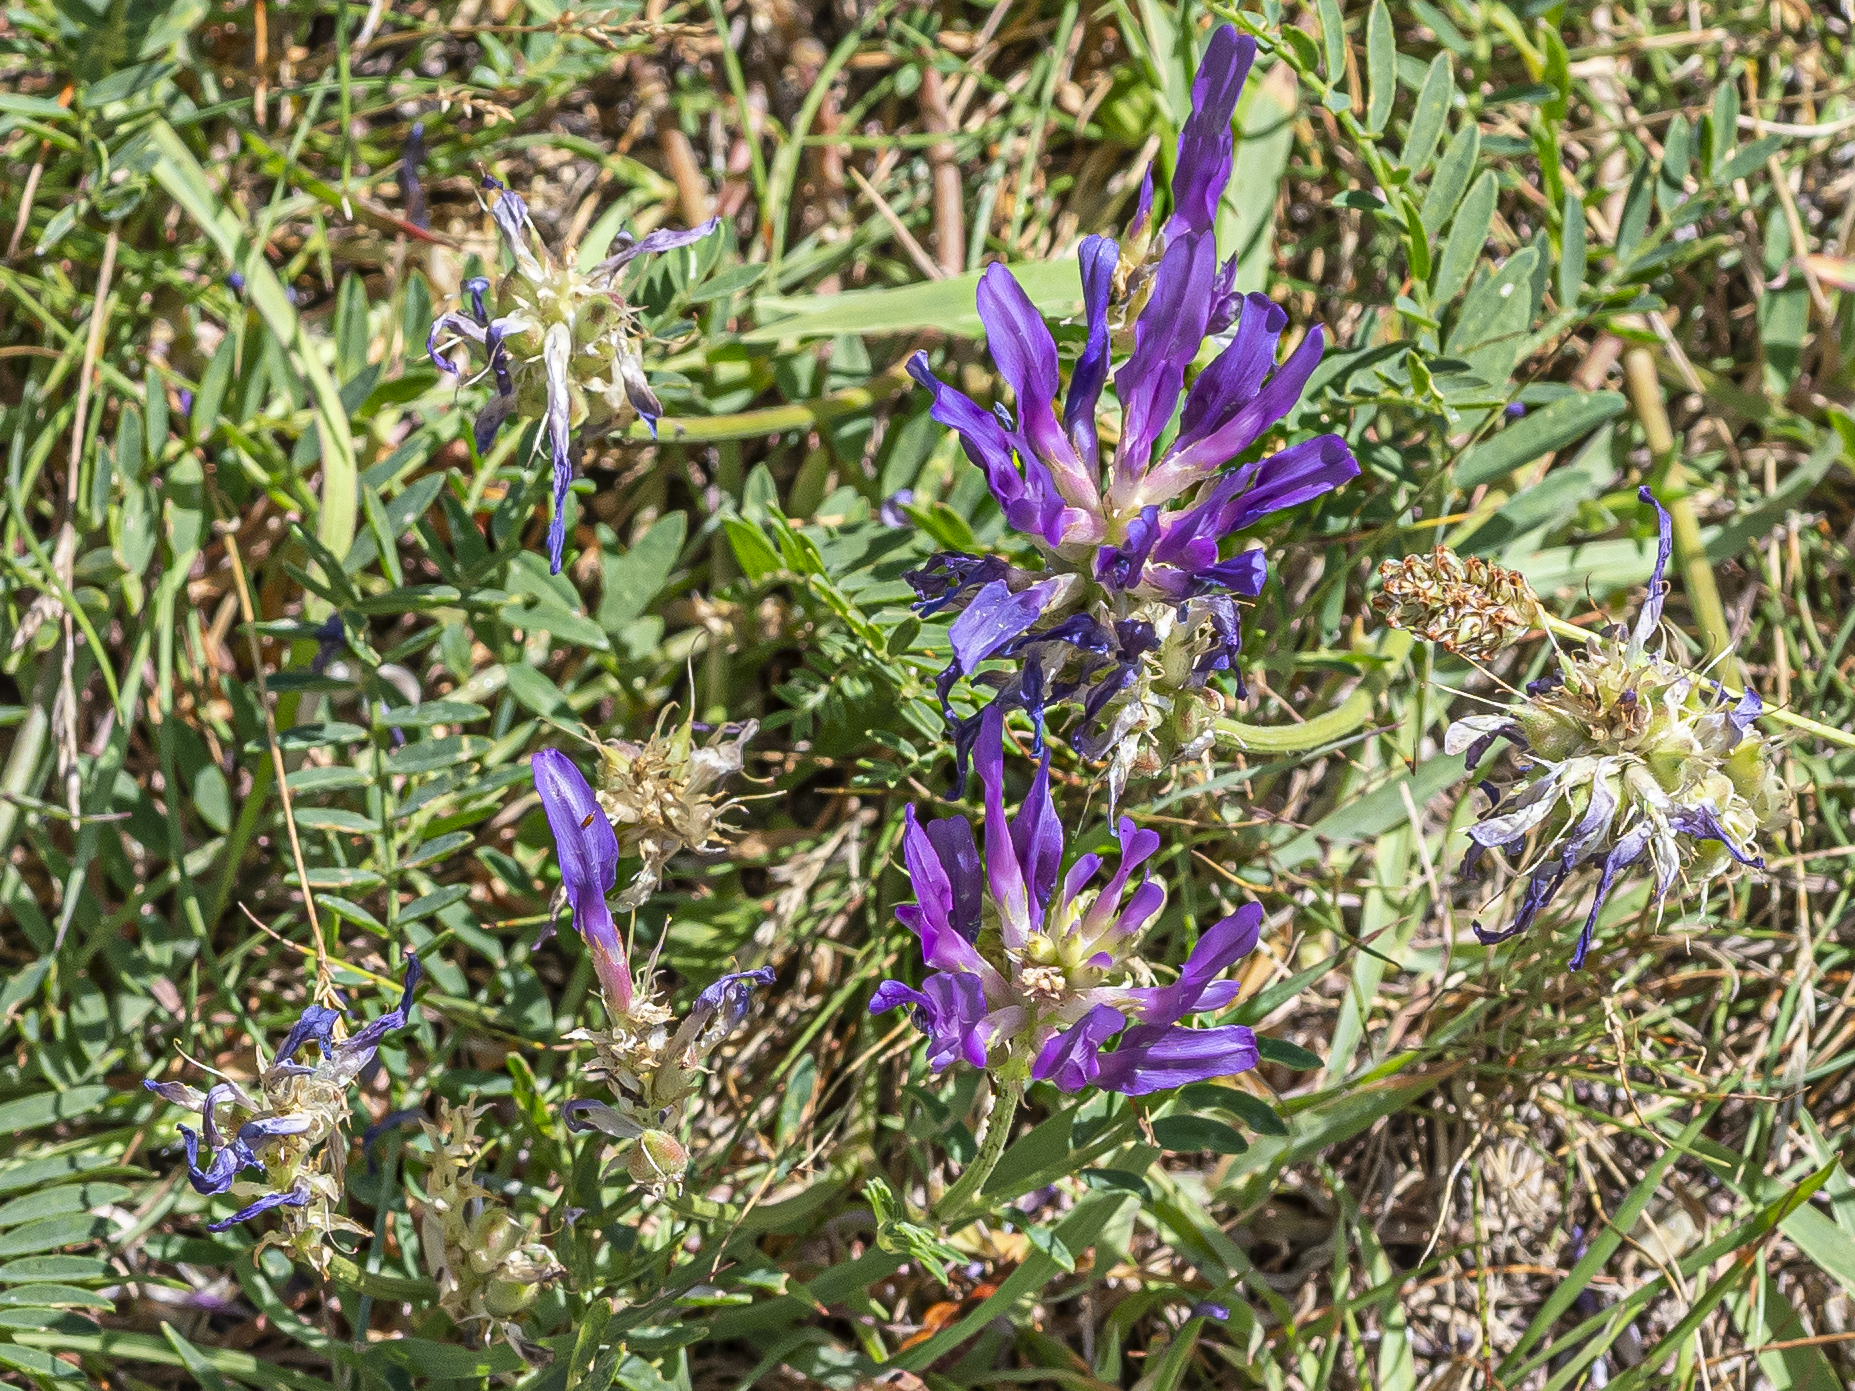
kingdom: Plantae
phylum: Tracheophyta
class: Magnoliopsida
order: Fabales
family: Fabaceae
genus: Astragalus
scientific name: Astragalus onobrychis
